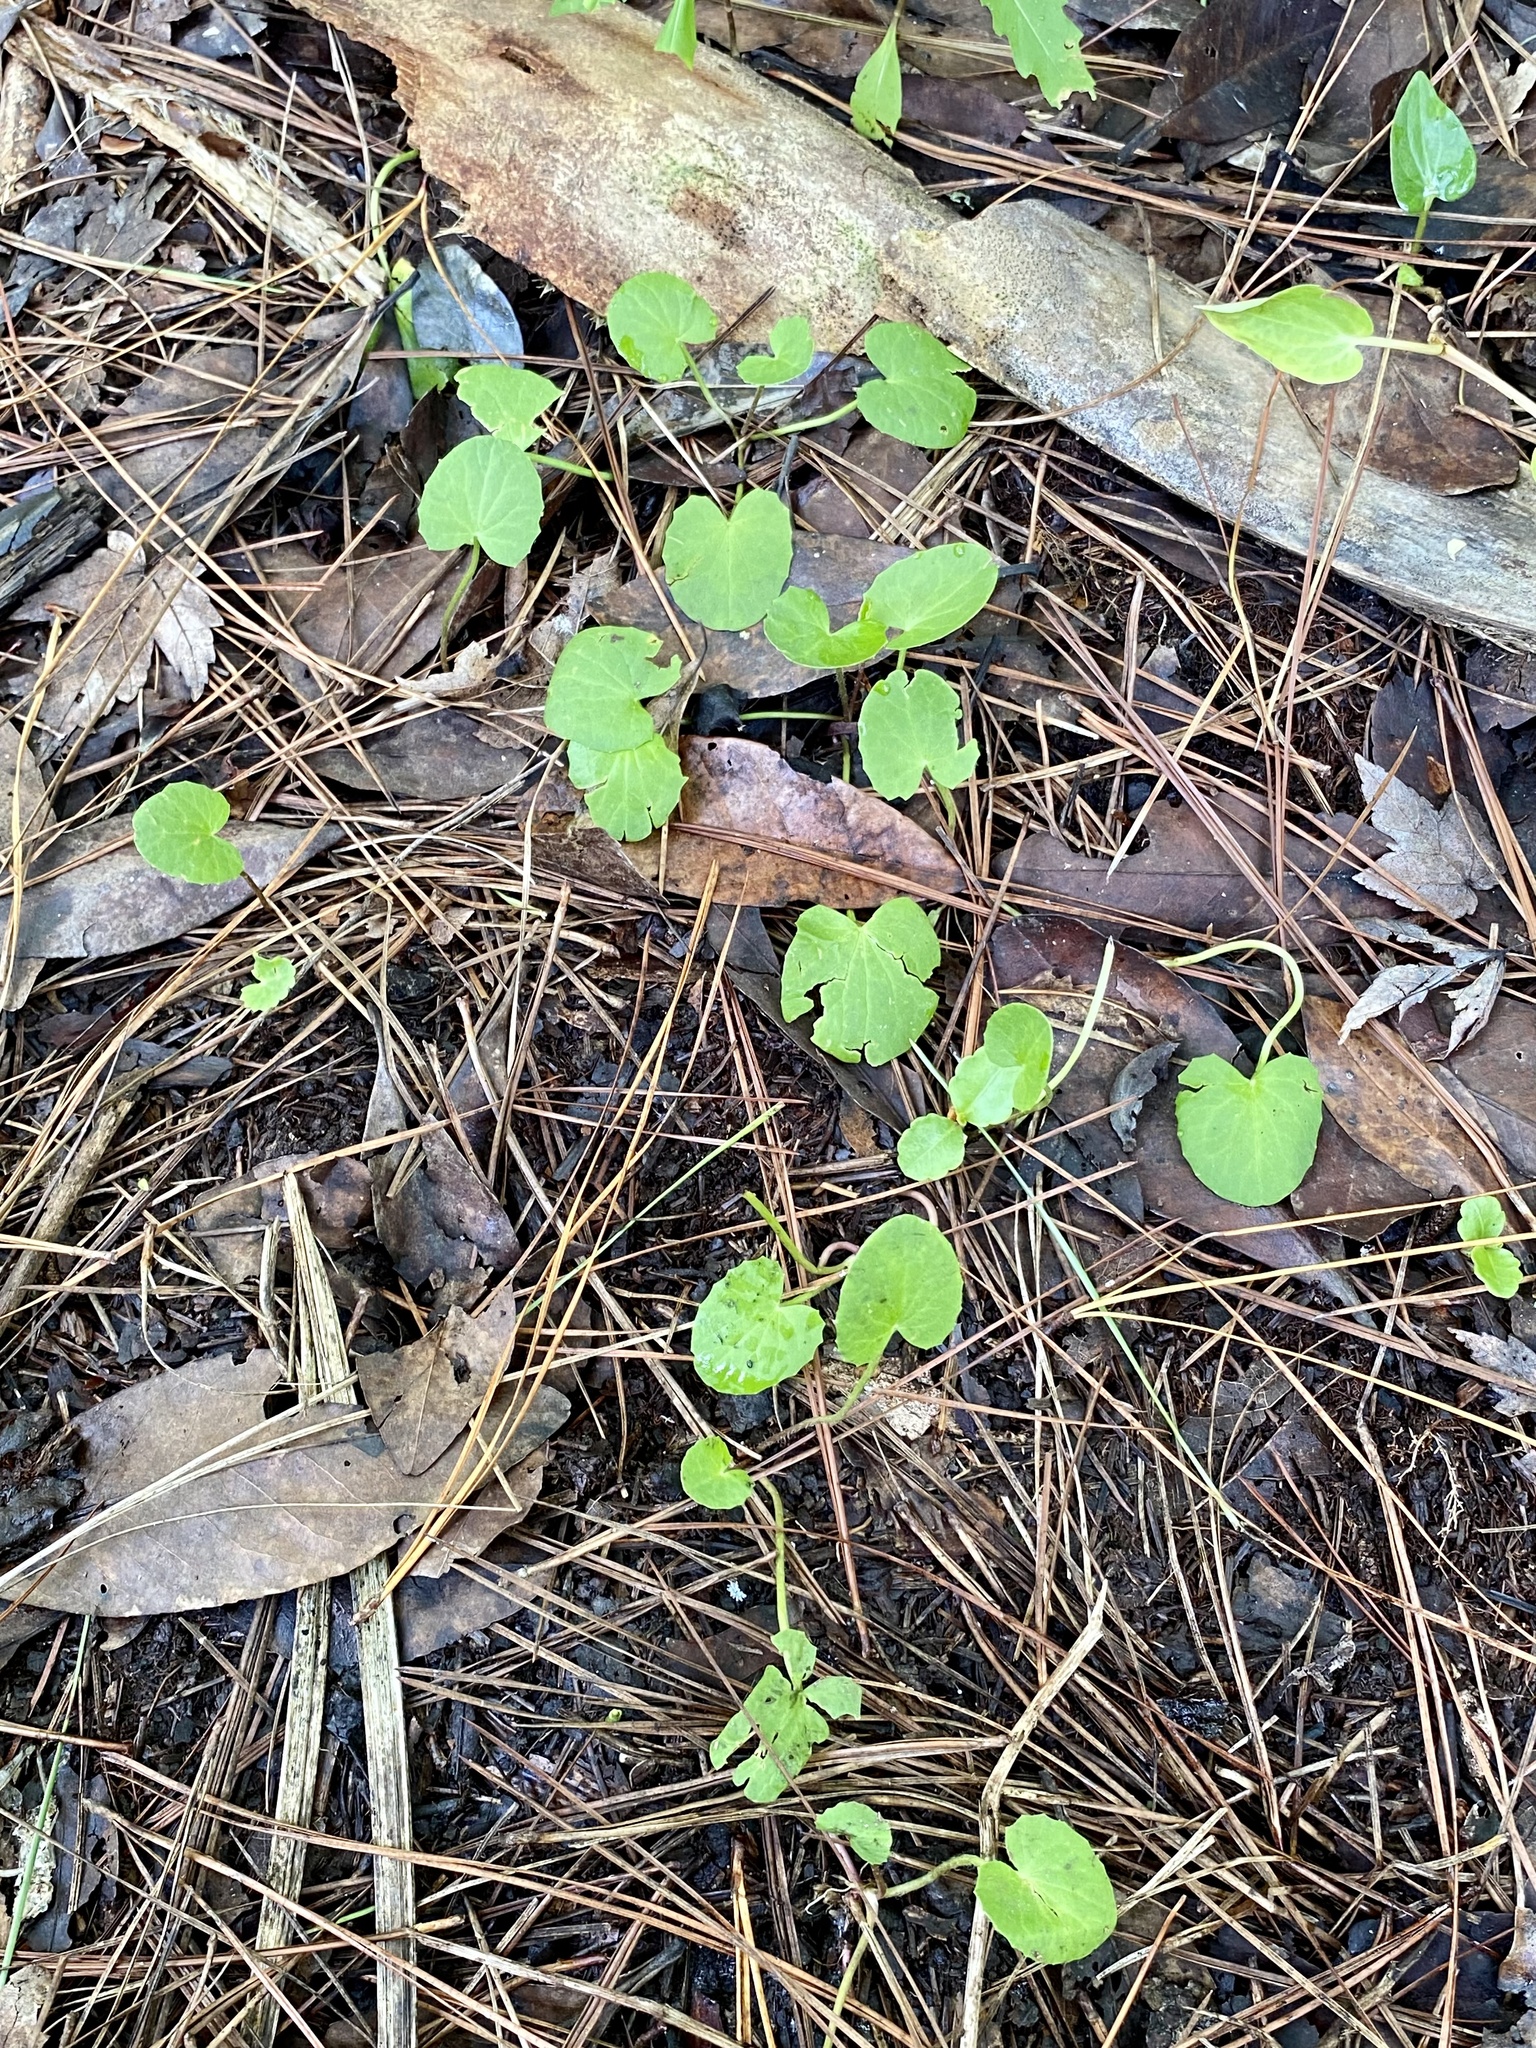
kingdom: Plantae
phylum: Tracheophyta
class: Magnoliopsida
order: Apiales
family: Apiaceae
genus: Centella
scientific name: Centella erecta
